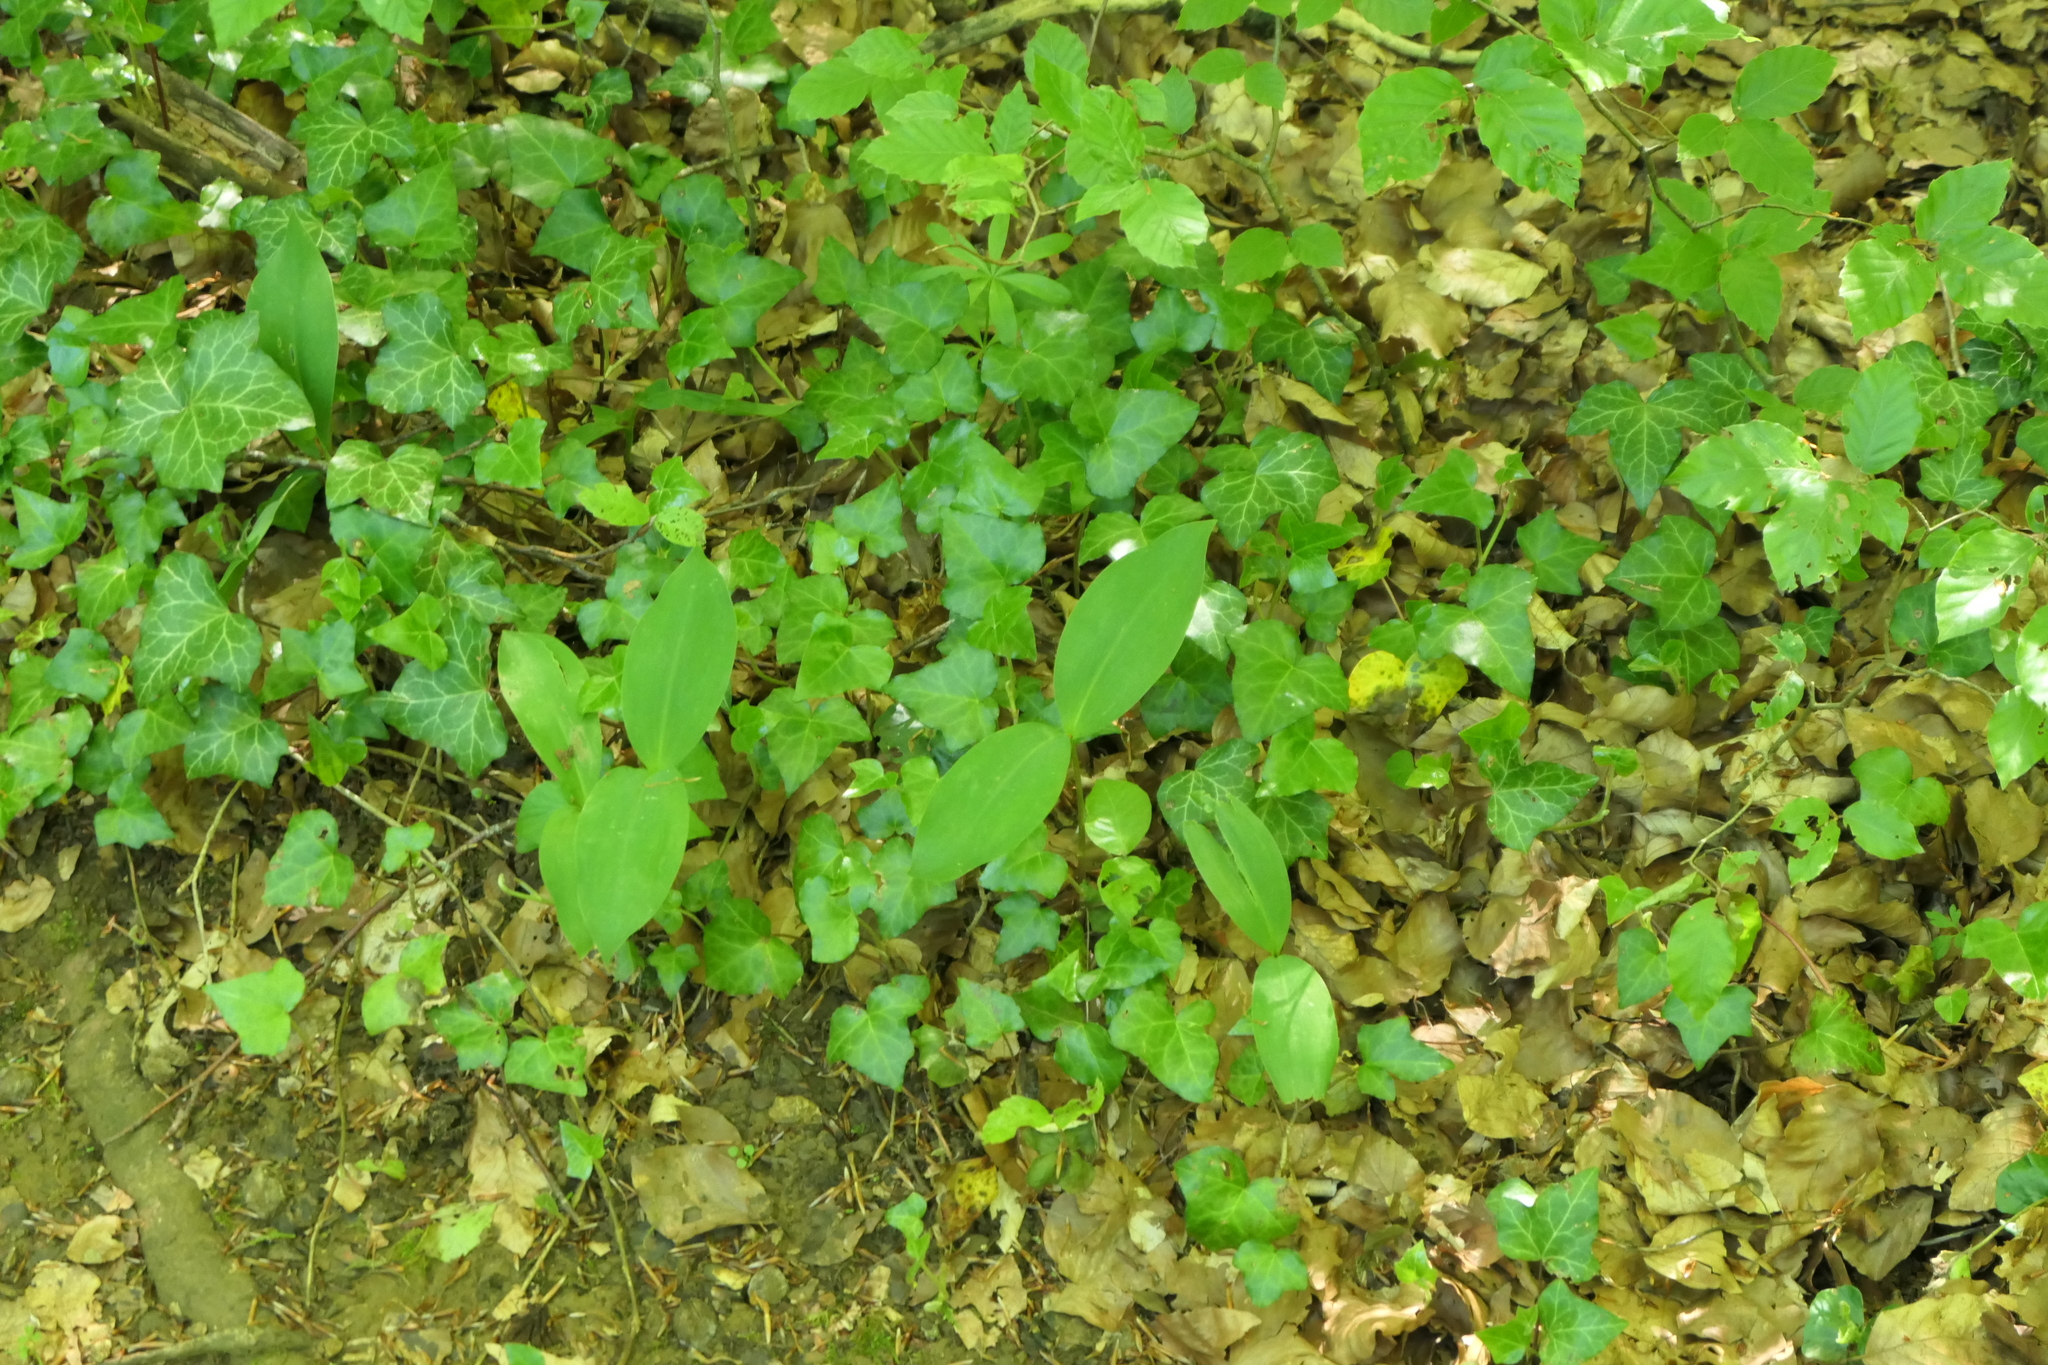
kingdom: Plantae
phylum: Tracheophyta
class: Liliopsida
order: Asparagales
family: Asparagaceae
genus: Convallaria
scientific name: Convallaria majalis
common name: Lily-of-the-valley
